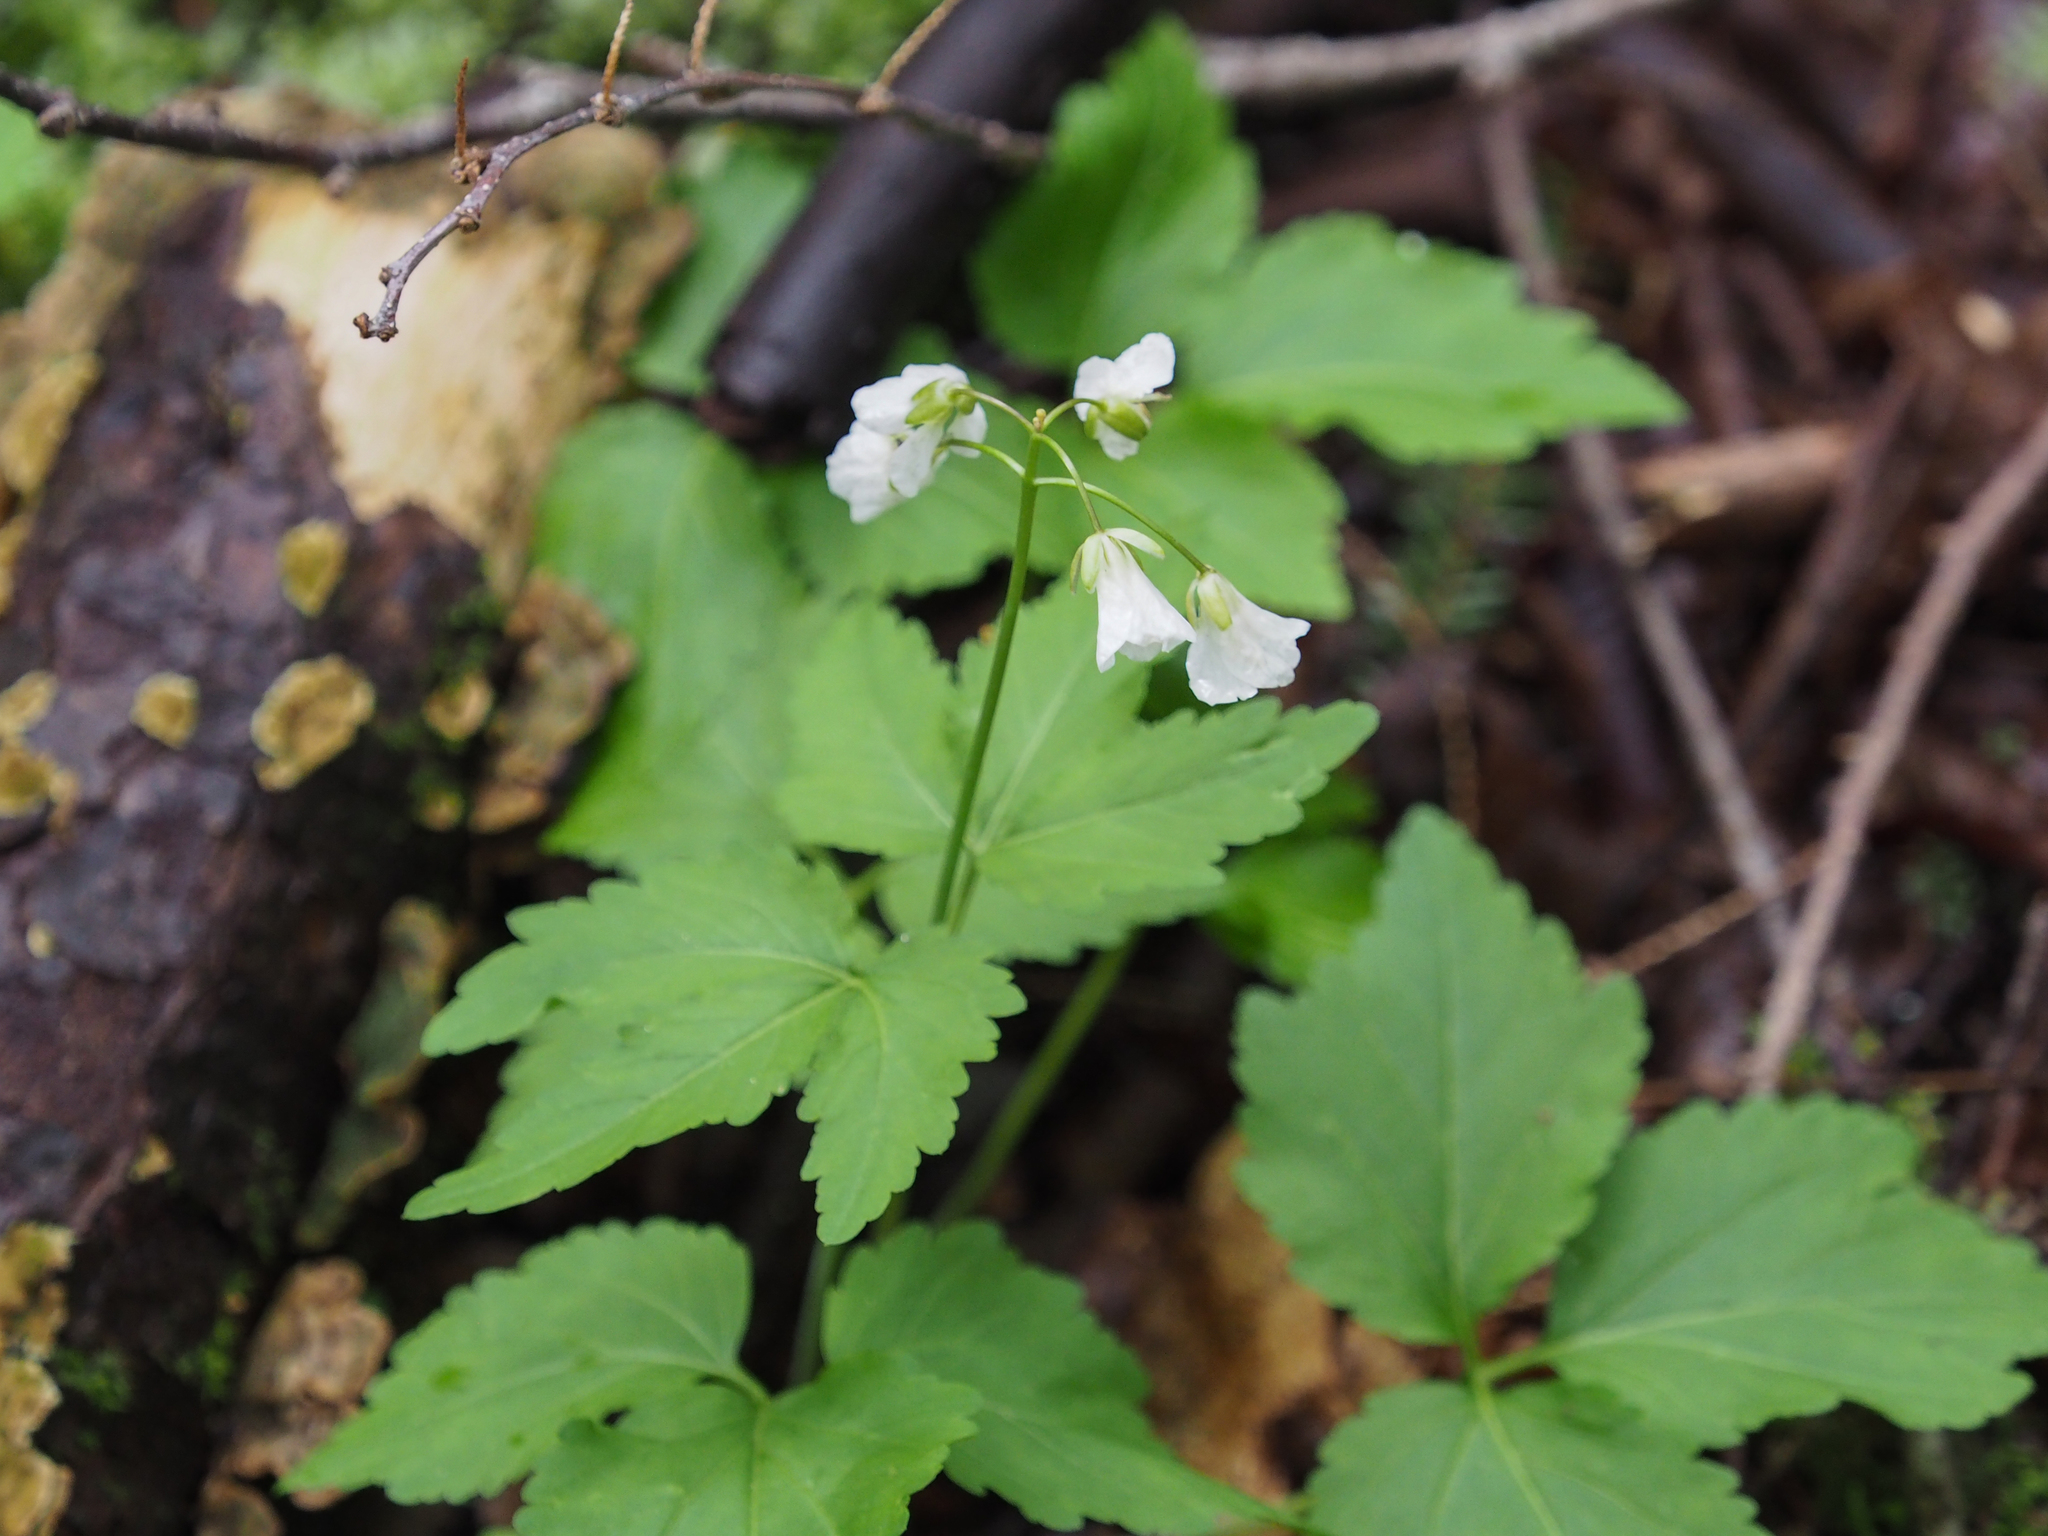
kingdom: Plantae
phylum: Tracheophyta
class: Magnoliopsida
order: Brassicales
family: Brassicaceae
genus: Cardamine
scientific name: Cardamine diphylla
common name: Broad-leaved toothwort
